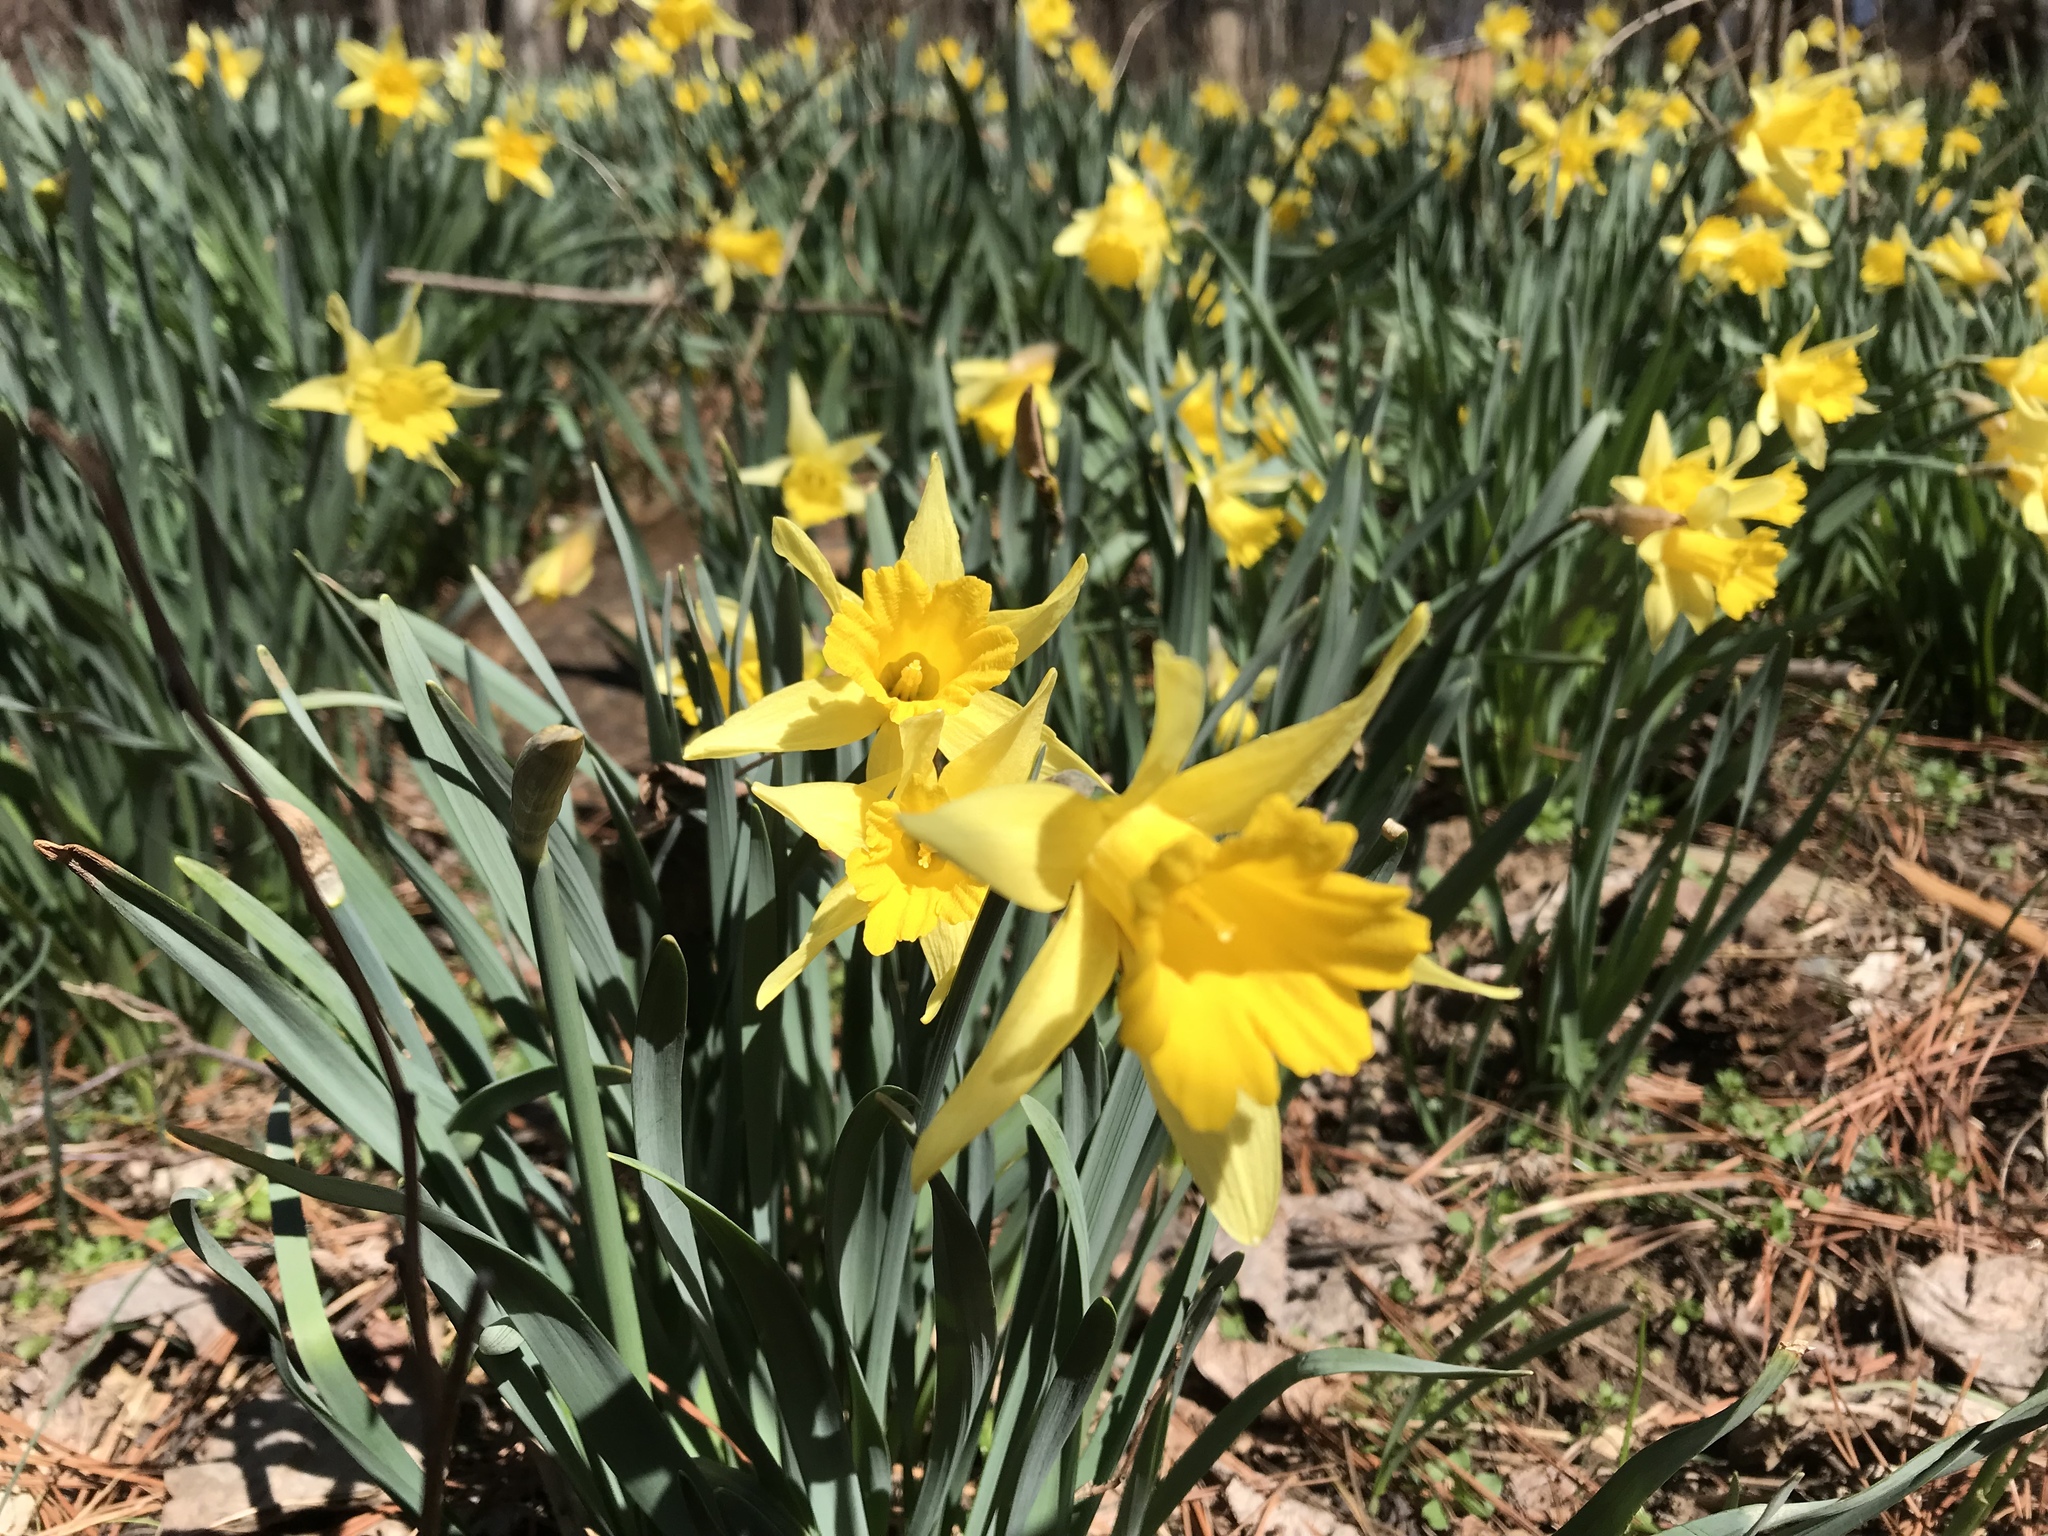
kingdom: Plantae
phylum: Tracheophyta
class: Liliopsida
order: Asparagales
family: Amaryllidaceae
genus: Narcissus
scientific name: Narcissus pseudonarcissus
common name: Daffodil
